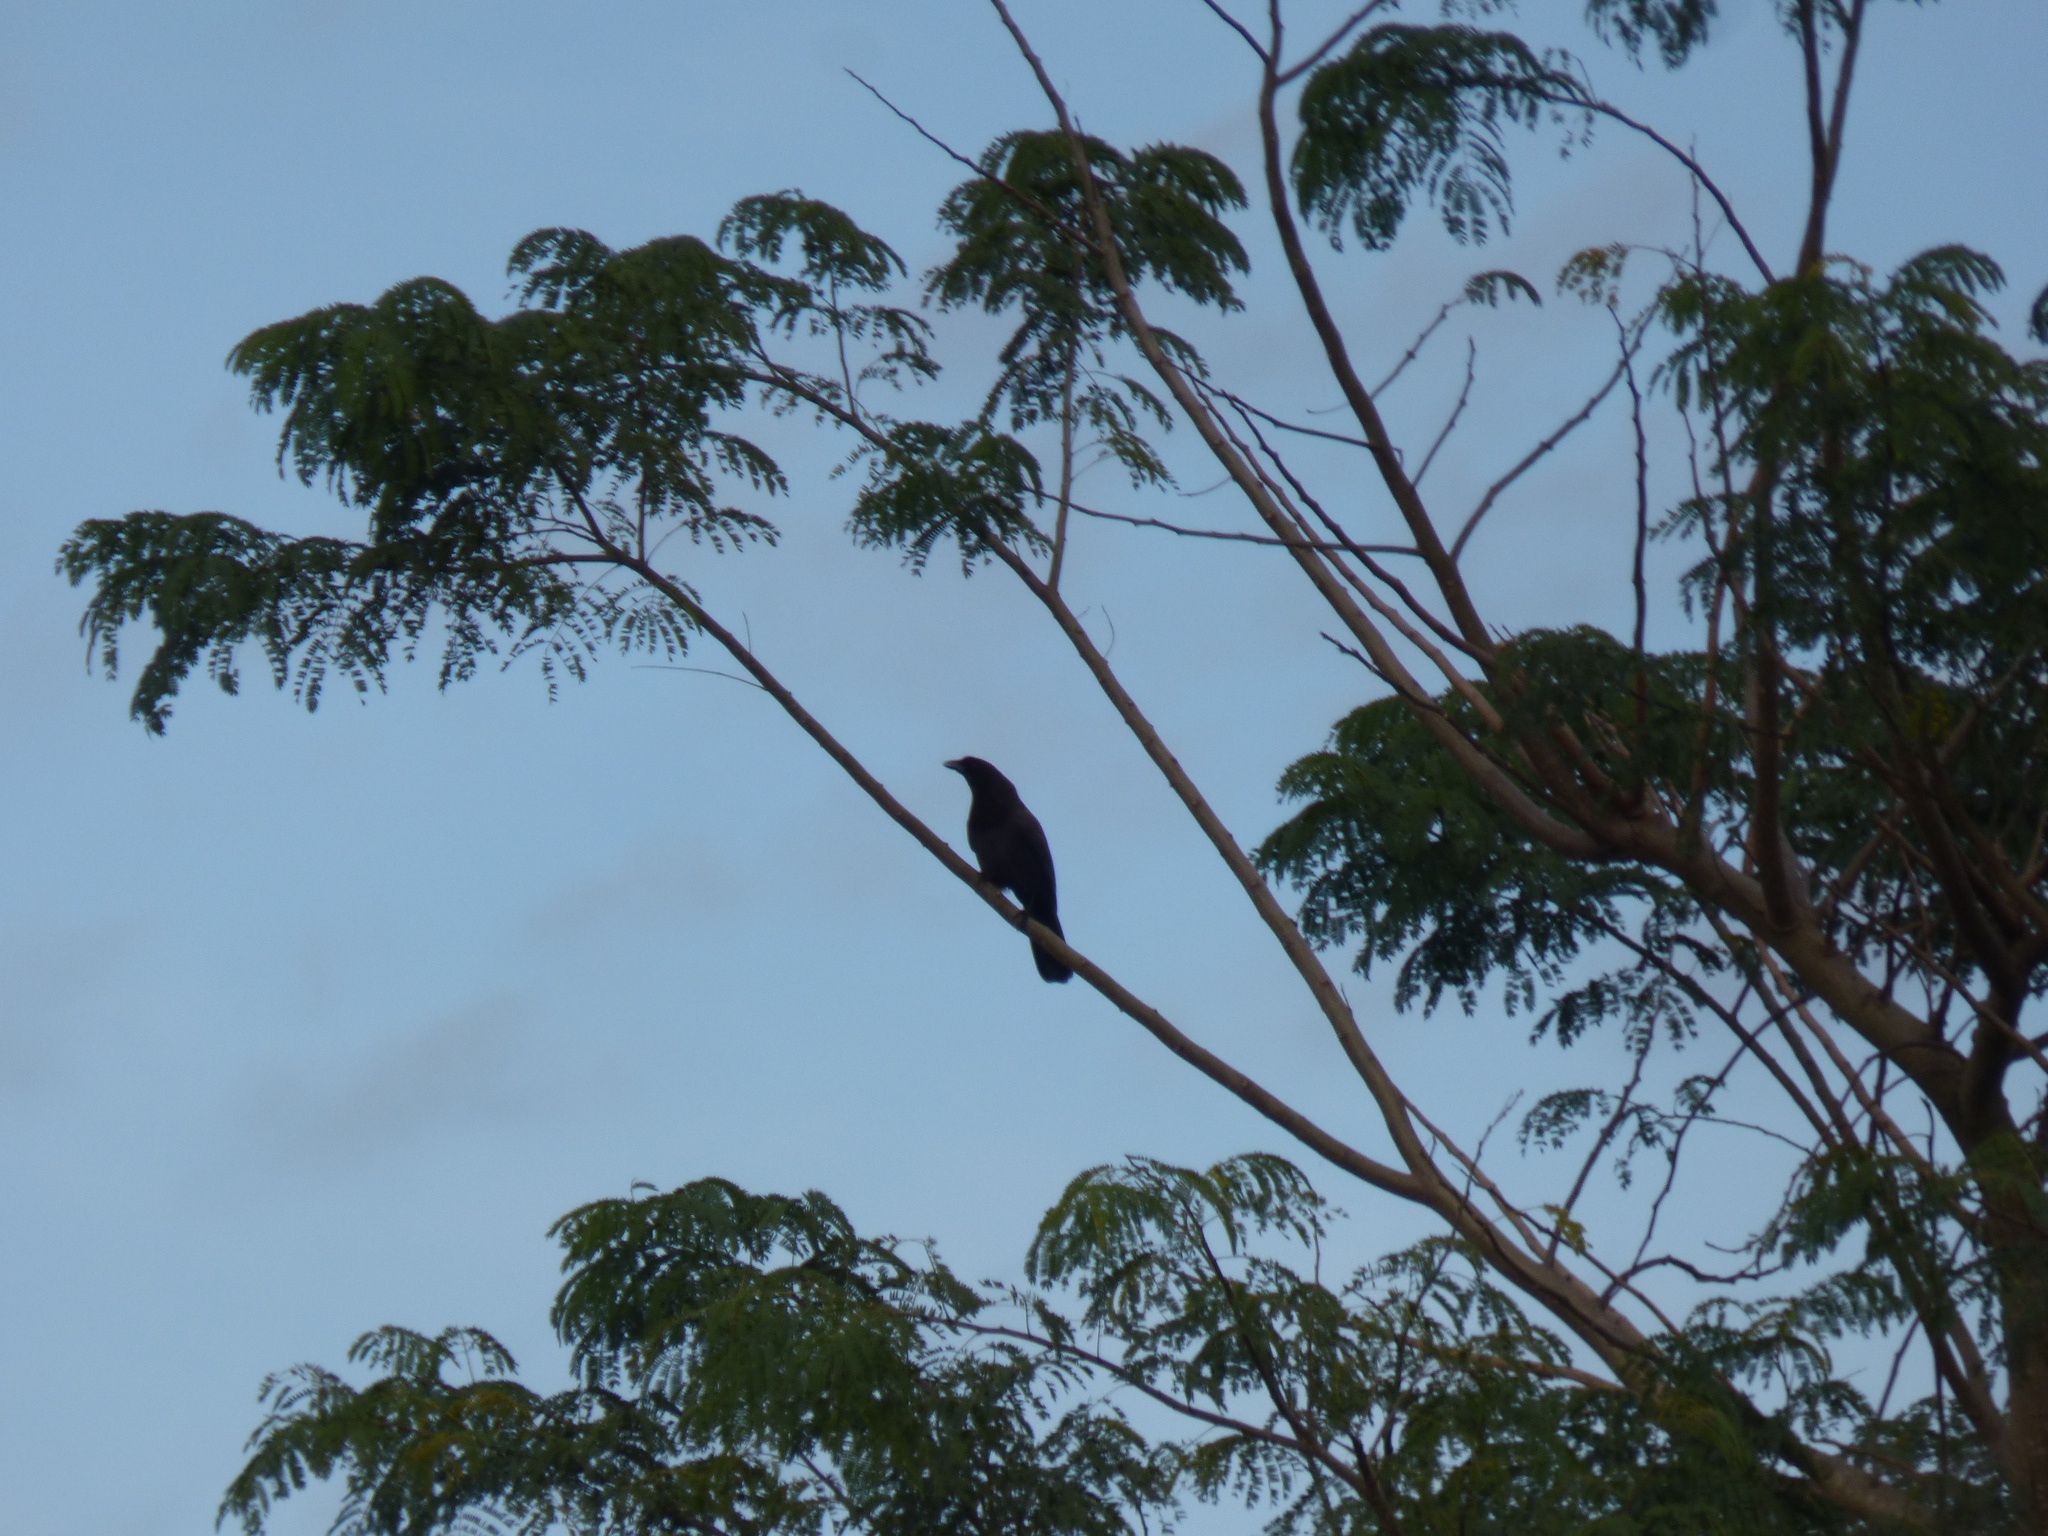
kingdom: Animalia
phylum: Chordata
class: Aves
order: Passeriformes
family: Corvidae
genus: Cyanocorax
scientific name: Cyanocorax cyanomelas
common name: Purplish jay
